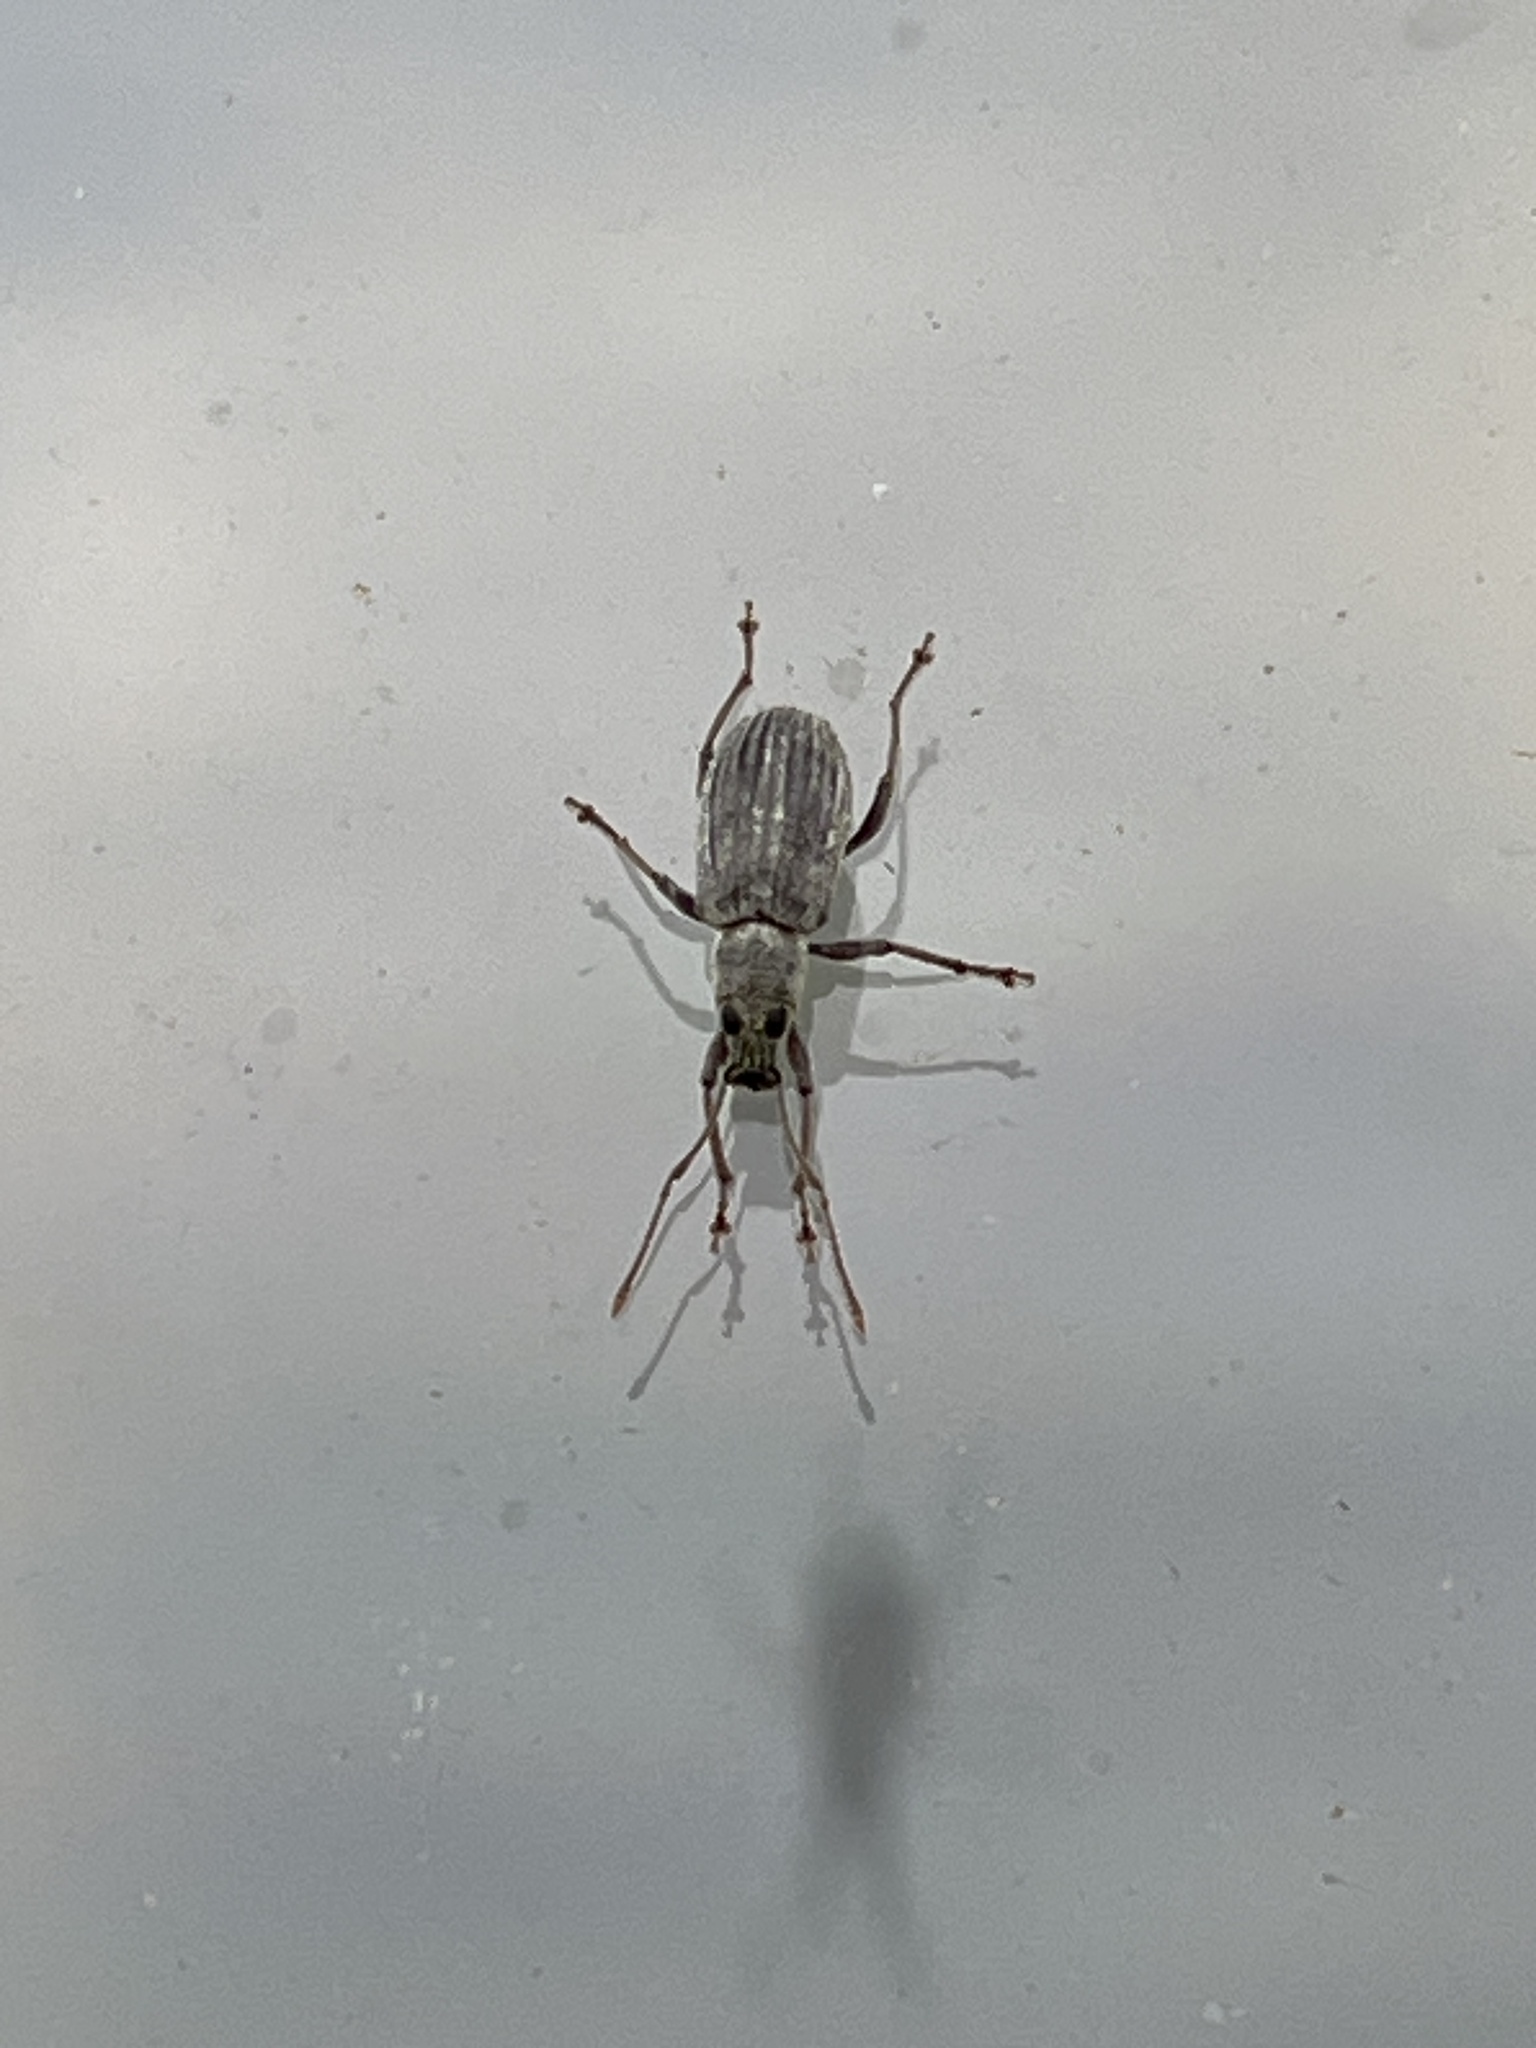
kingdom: Animalia
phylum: Arthropoda
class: Insecta
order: Coleoptera
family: Curculionidae
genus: Cyrtepistomus
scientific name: Cyrtepistomus castaneus
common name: Weevil
